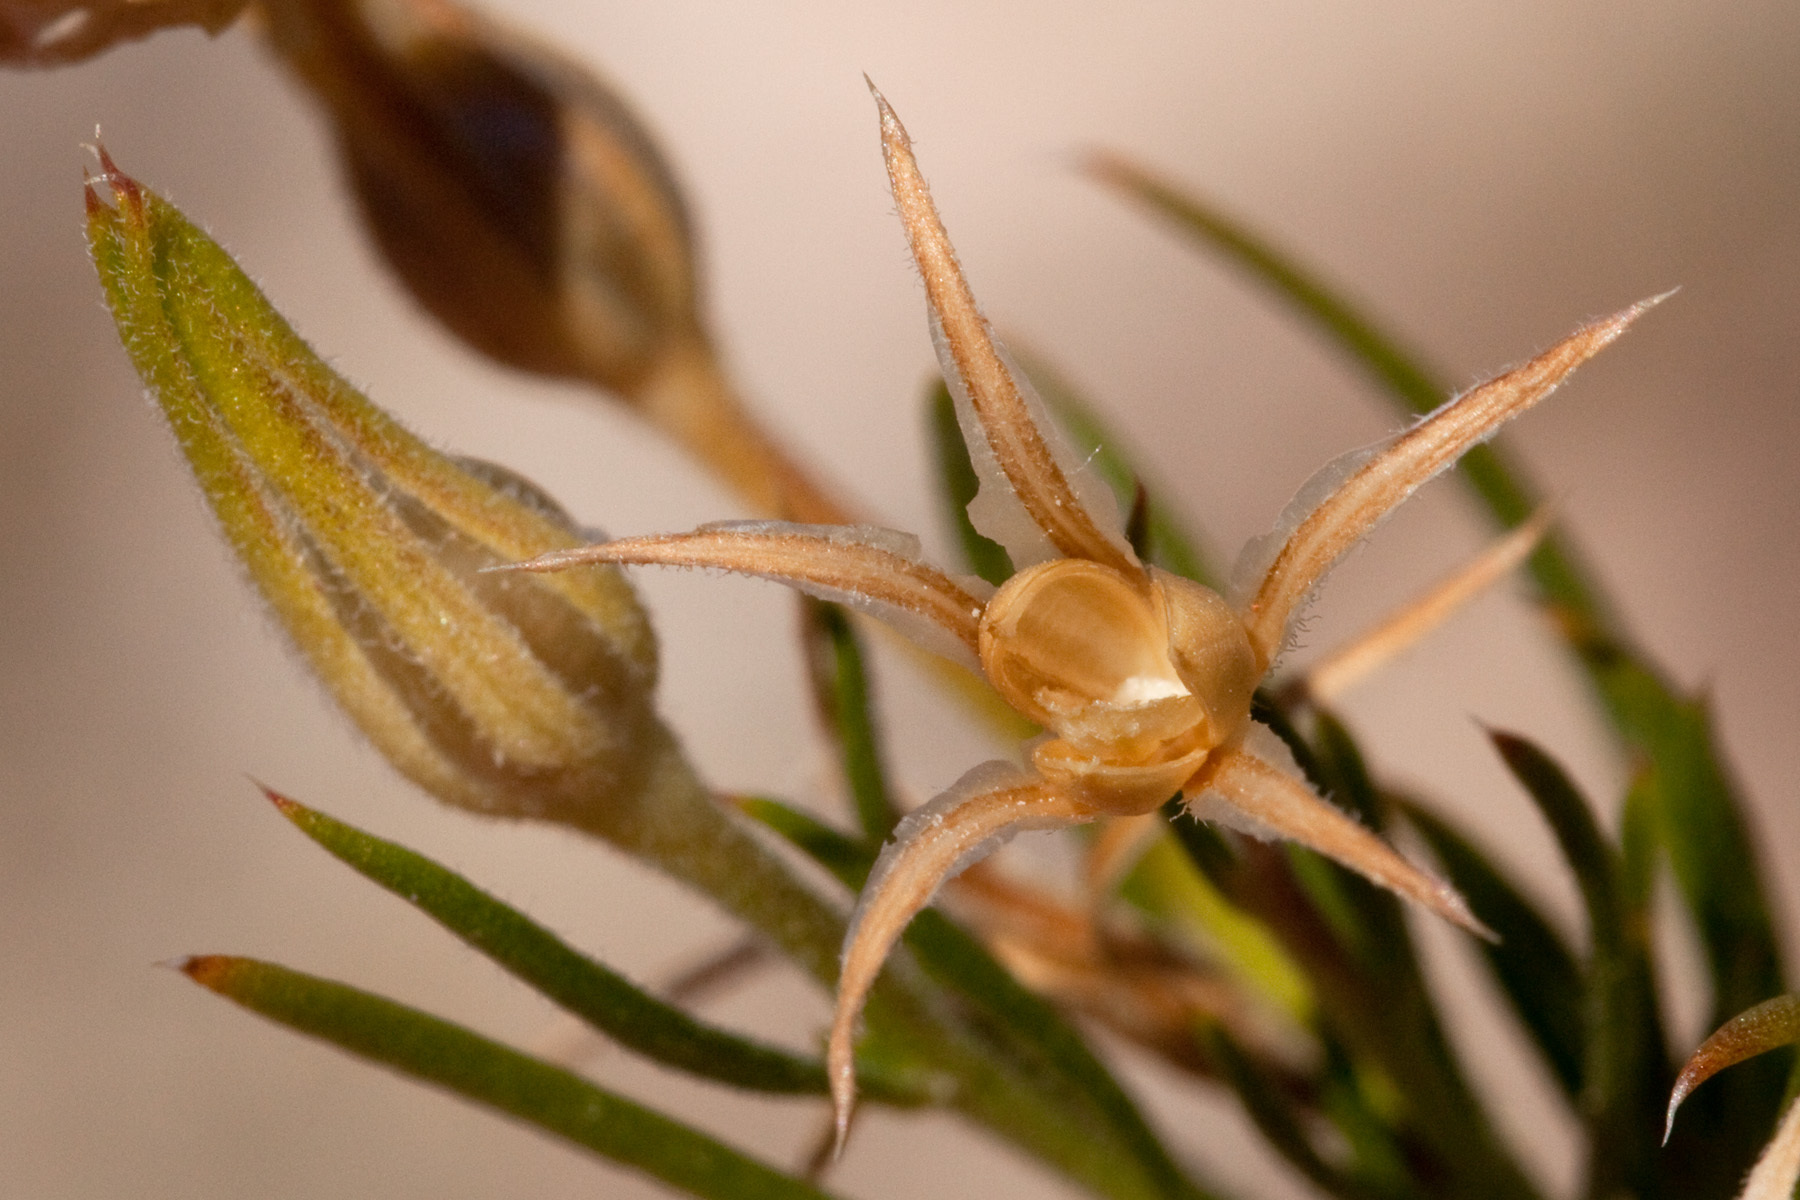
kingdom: Plantae
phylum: Tracheophyta
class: Magnoliopsida
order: Ericales
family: Polemoniaceae
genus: Phlox
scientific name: Phlox nana
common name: Santa fe phlox
